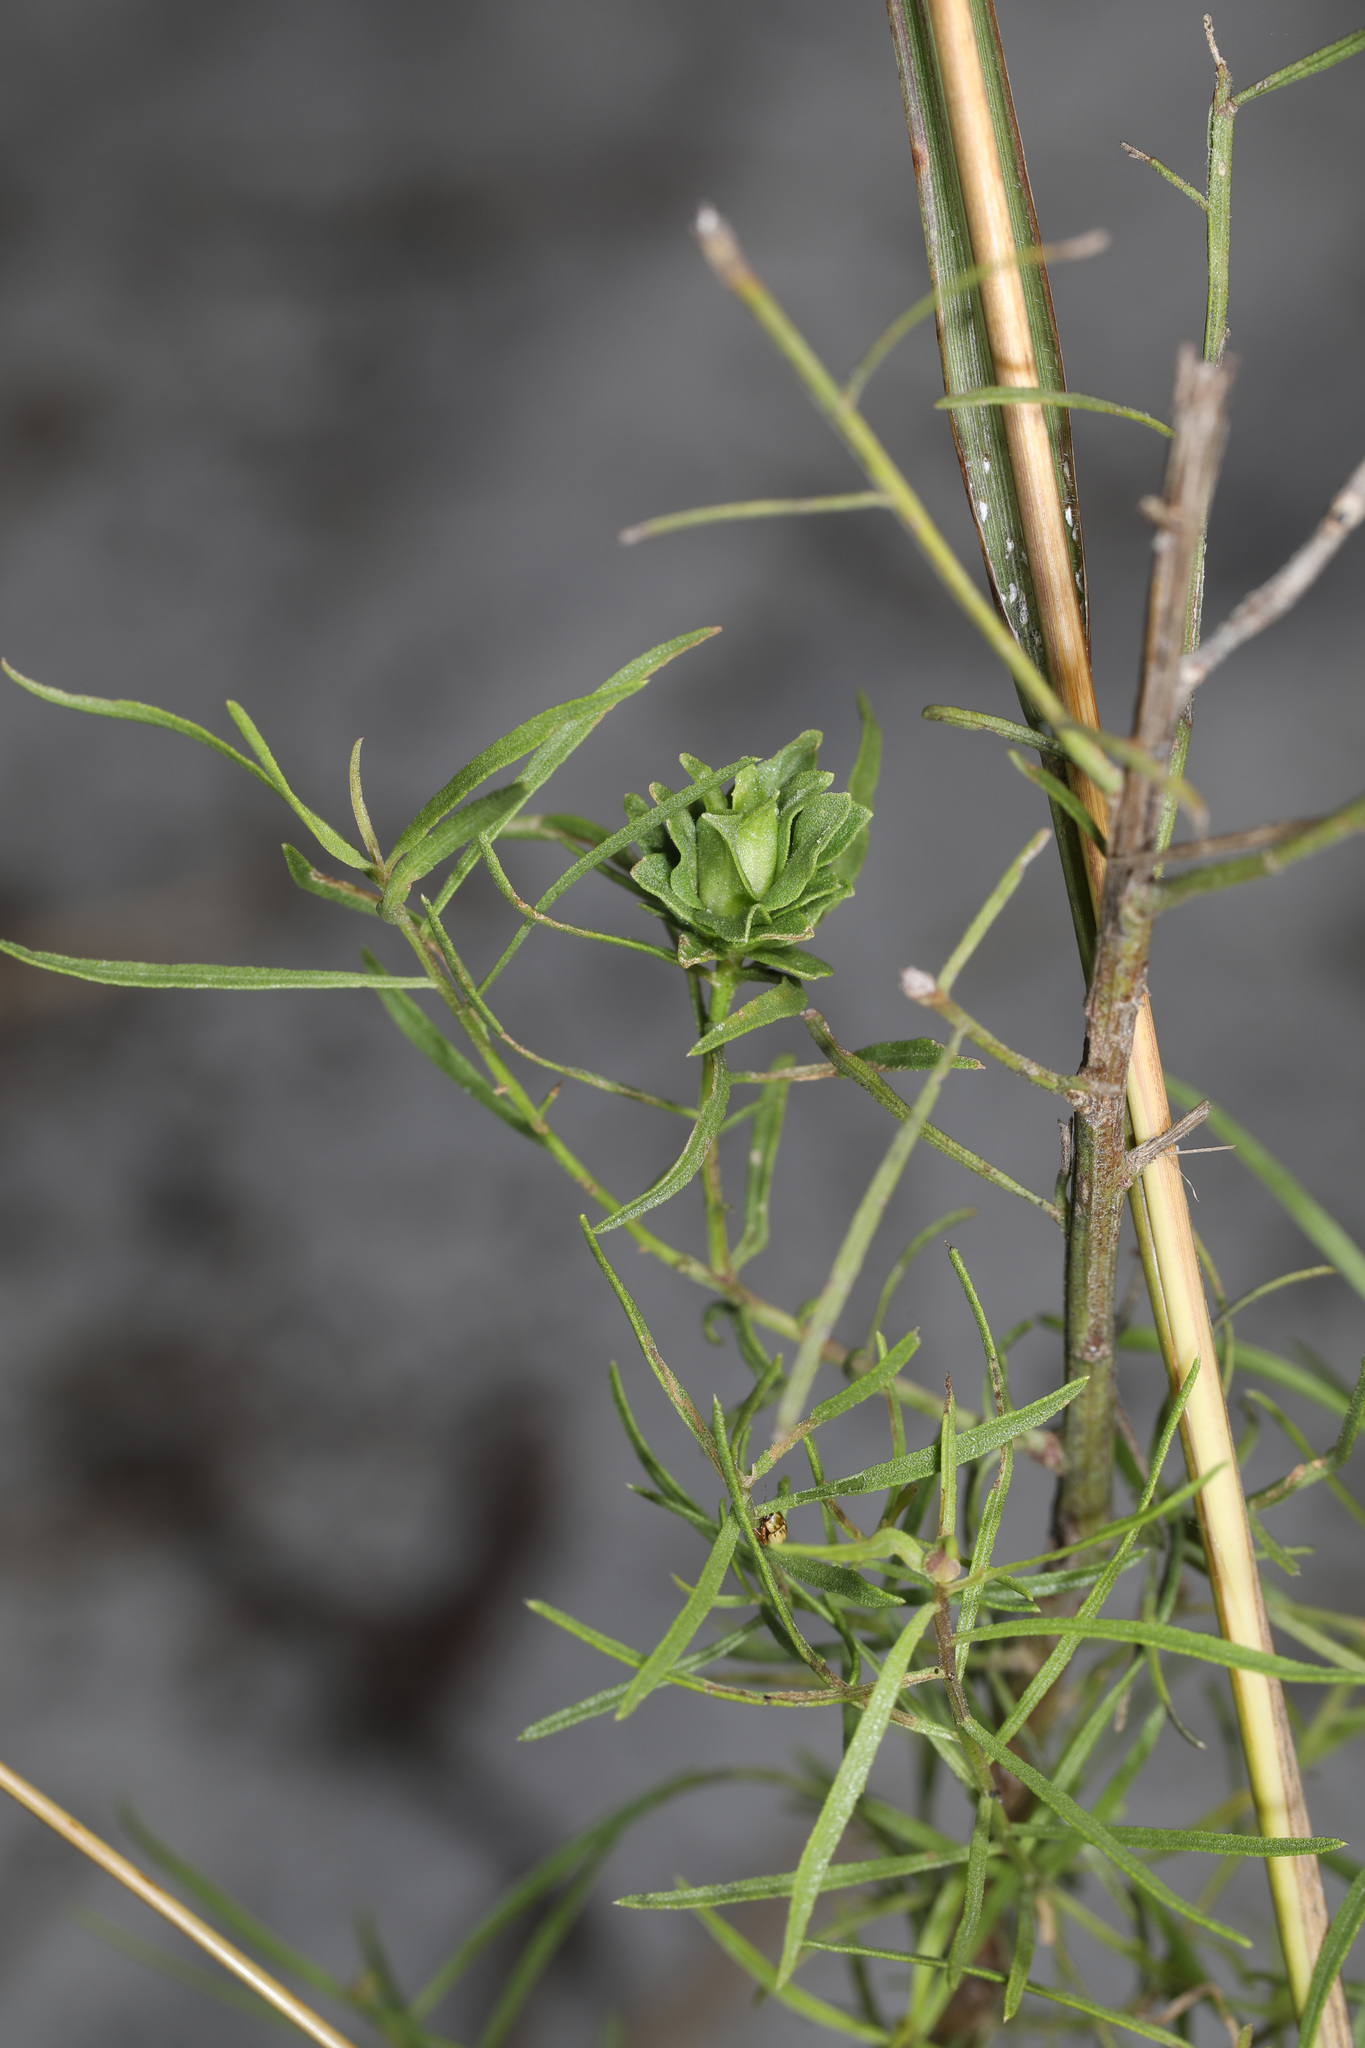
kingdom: Plantae
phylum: Tracheophyta
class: Magnoliopsida
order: Asterales
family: Asteraceae
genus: Euthamia
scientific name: Euthamia caroliniana
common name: Coastal plain goldentop
